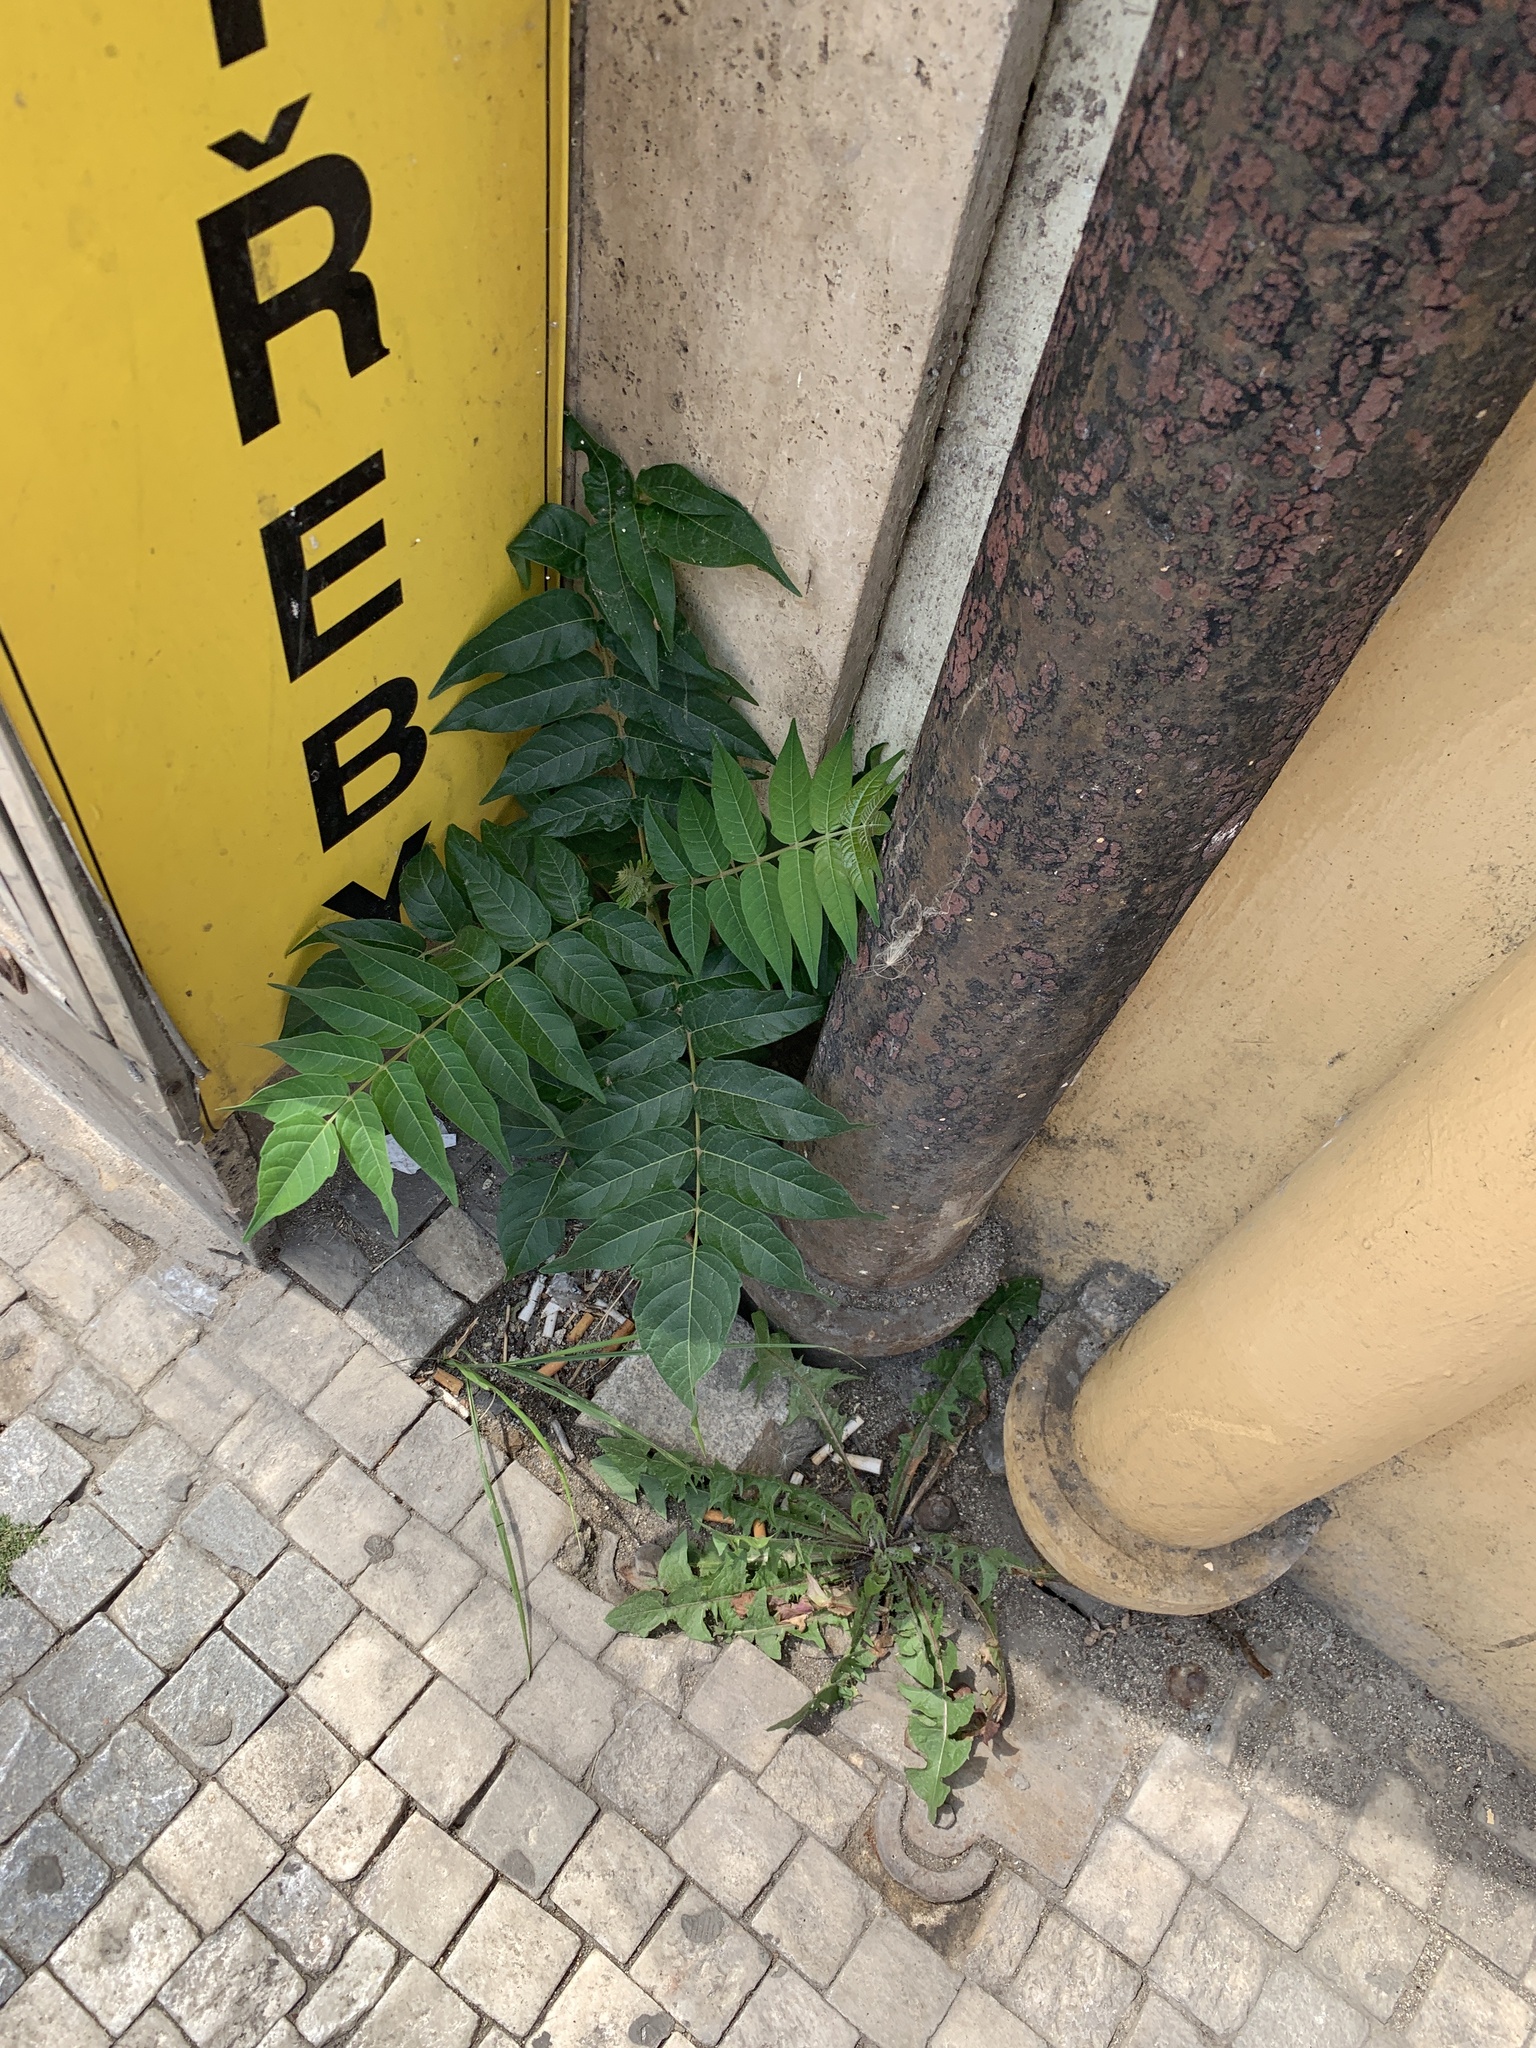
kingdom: Plantae
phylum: Tracheophyta
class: Magnoliopsida
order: Sapindales
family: Simaroubaceae
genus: Ailanthus
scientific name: Ailanthus altissima
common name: Tree-of-heaven
